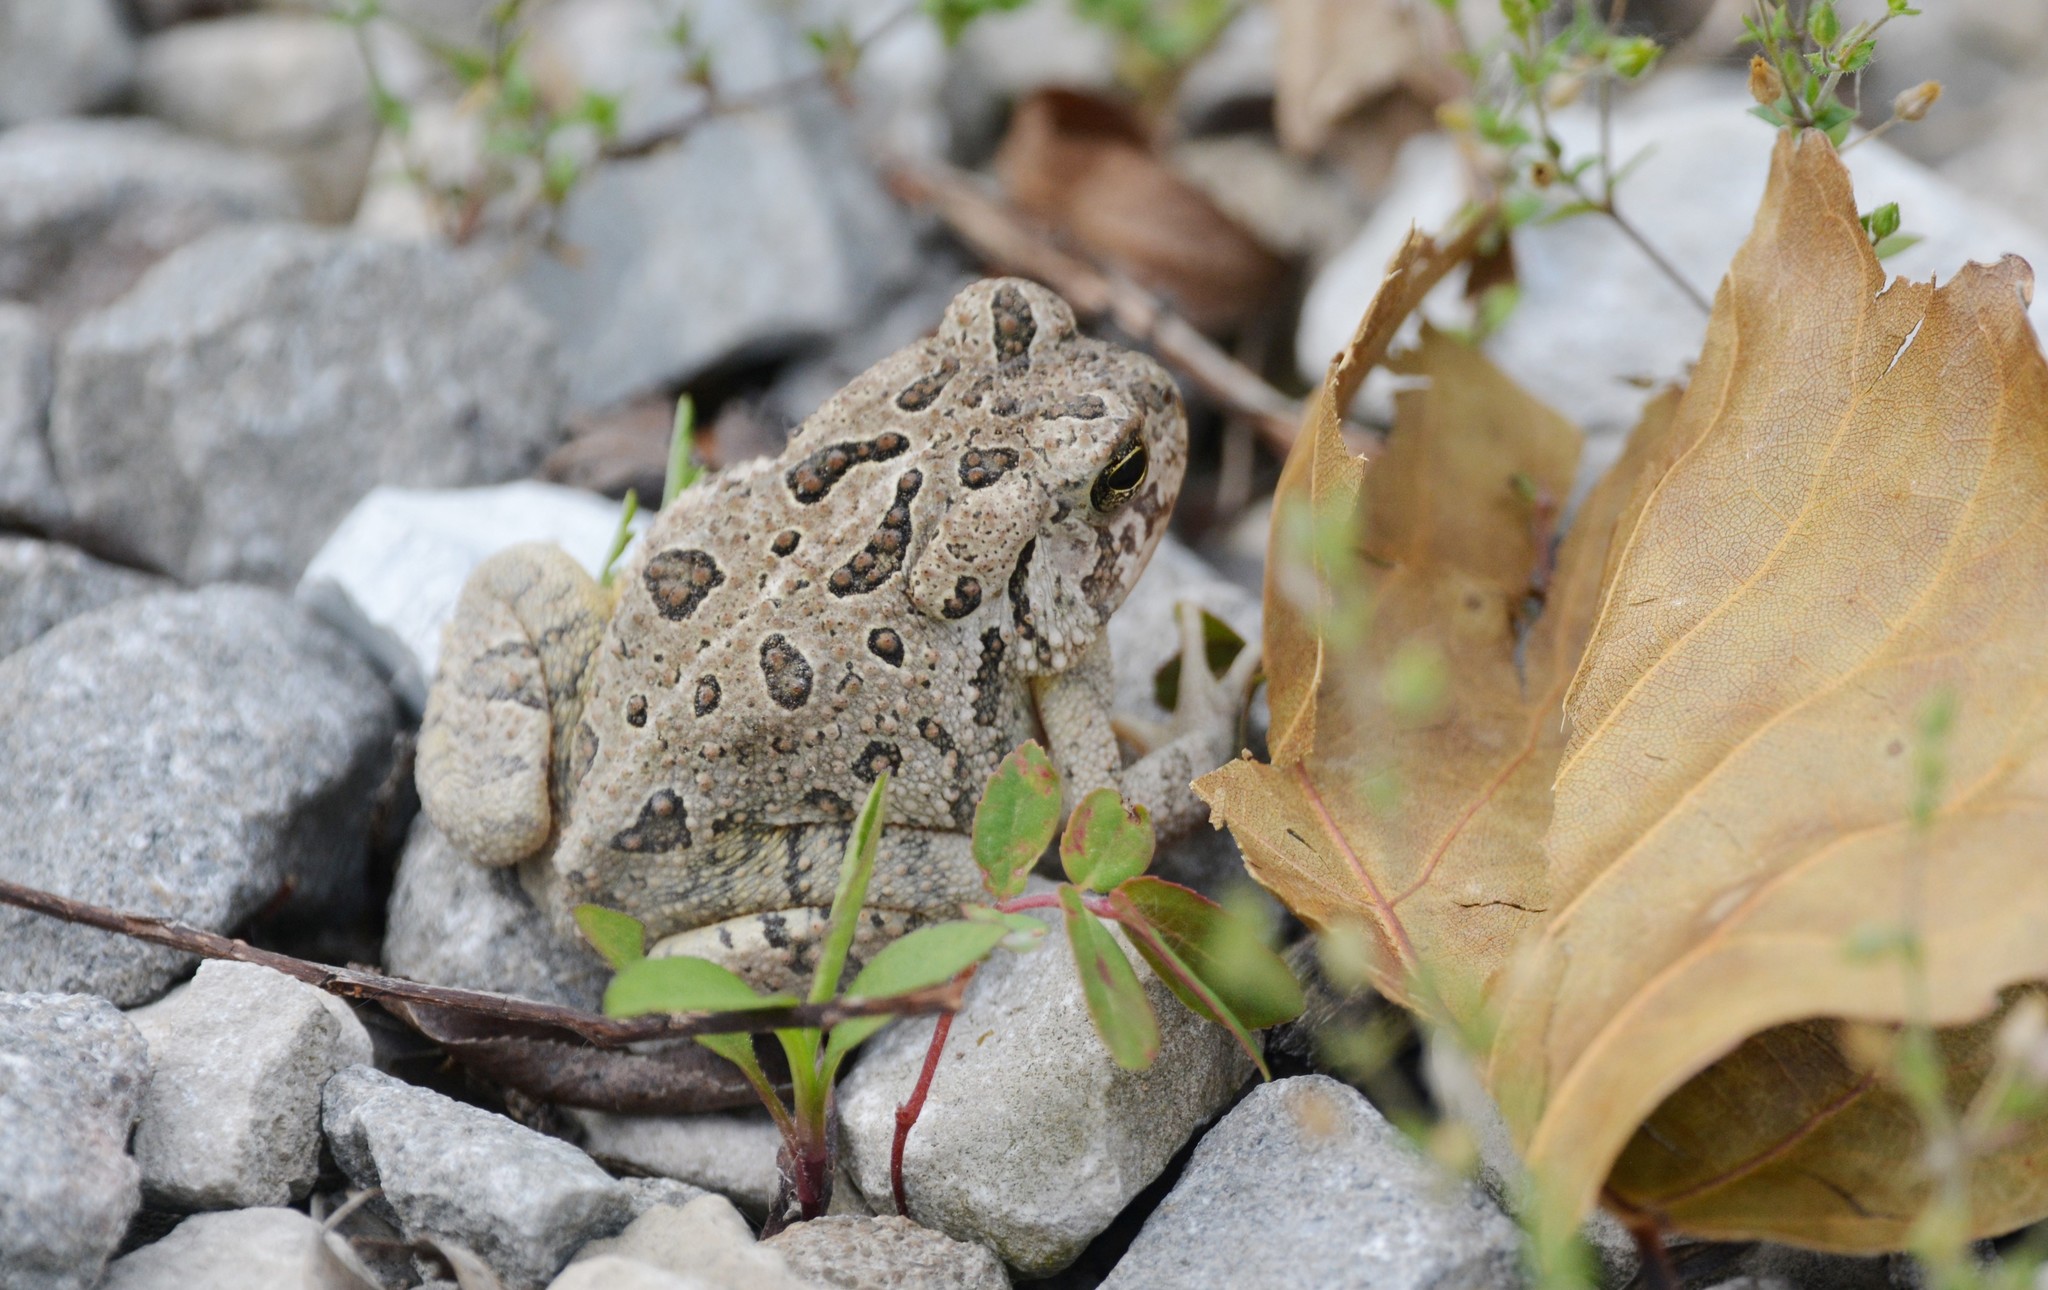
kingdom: Animalia
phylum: Chordata
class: Amphibia
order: Anura
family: Bufonidae
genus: Anaxyrus
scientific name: Anaxyrus fowleri
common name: Fowler's toad
